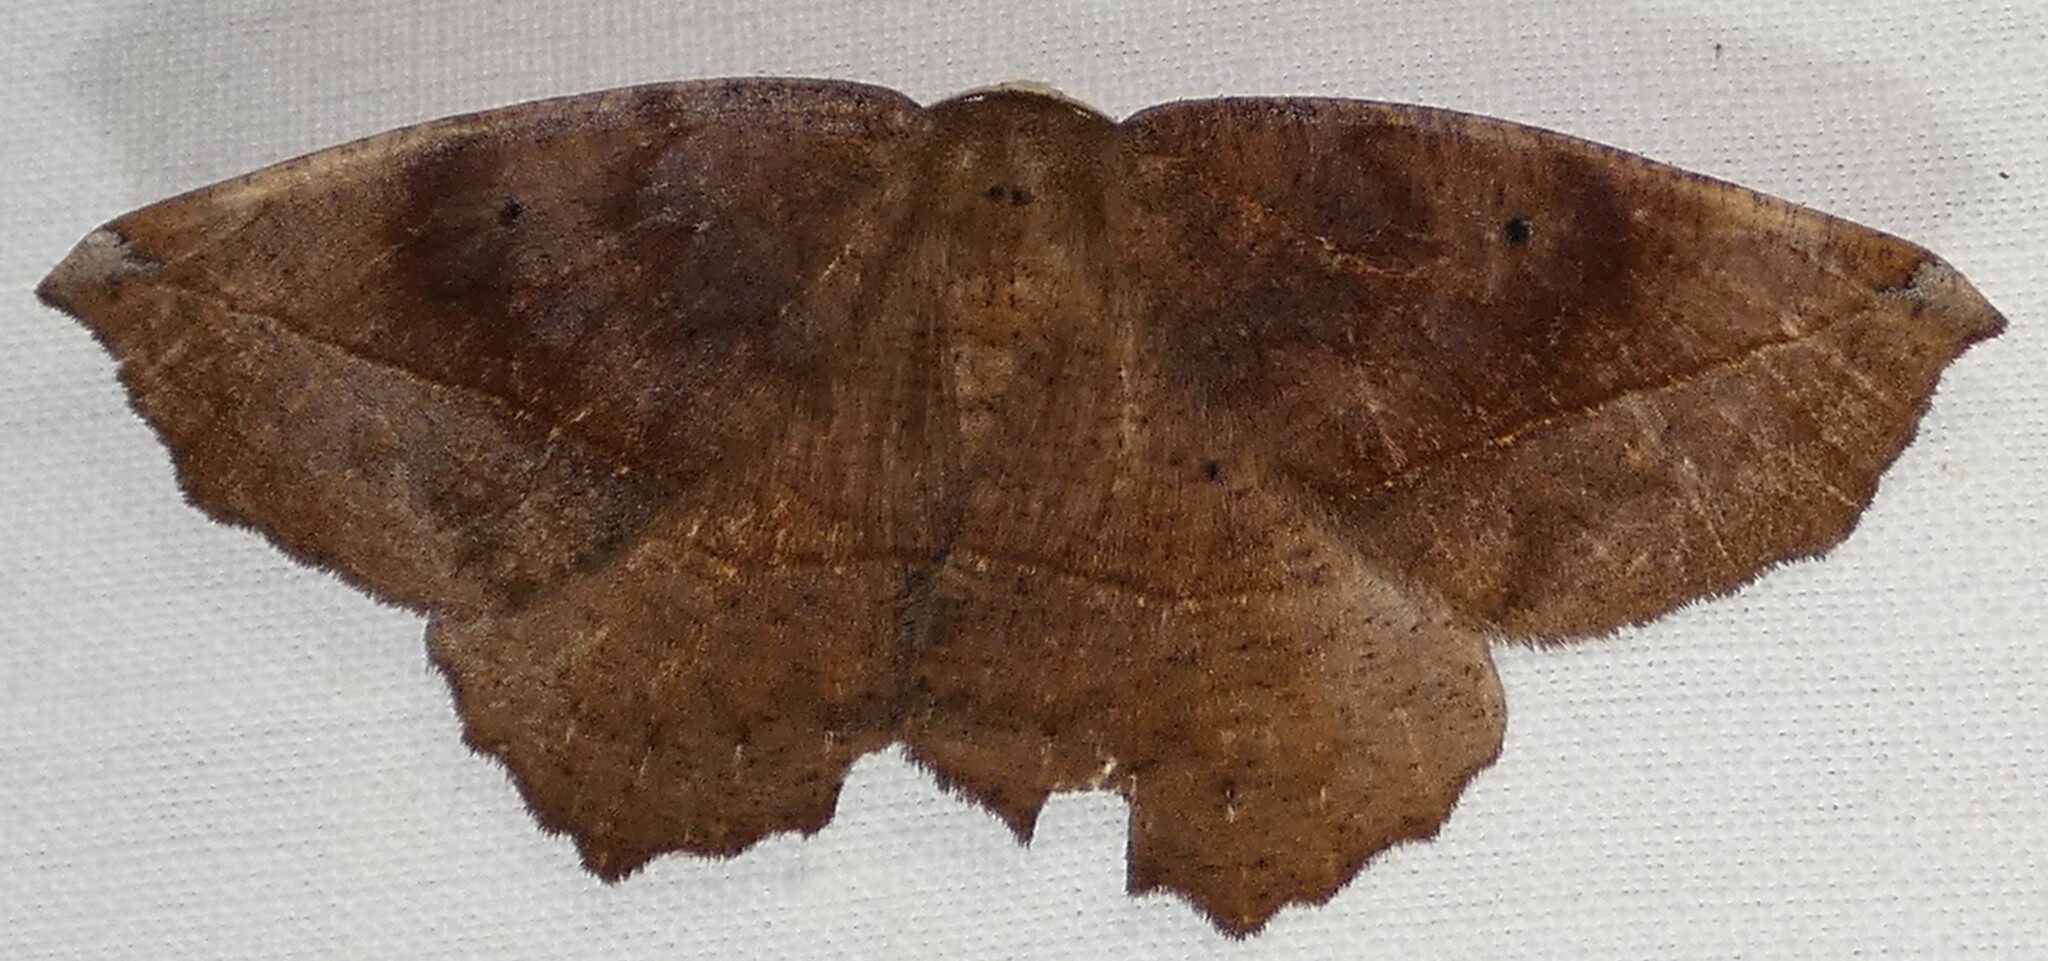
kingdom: Animalia
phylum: Arthropoda
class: Insecta
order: Lepidoptera
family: Geometridae
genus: Eutrapela
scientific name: Eutrapela clemataria
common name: Curved-toothed geometer
